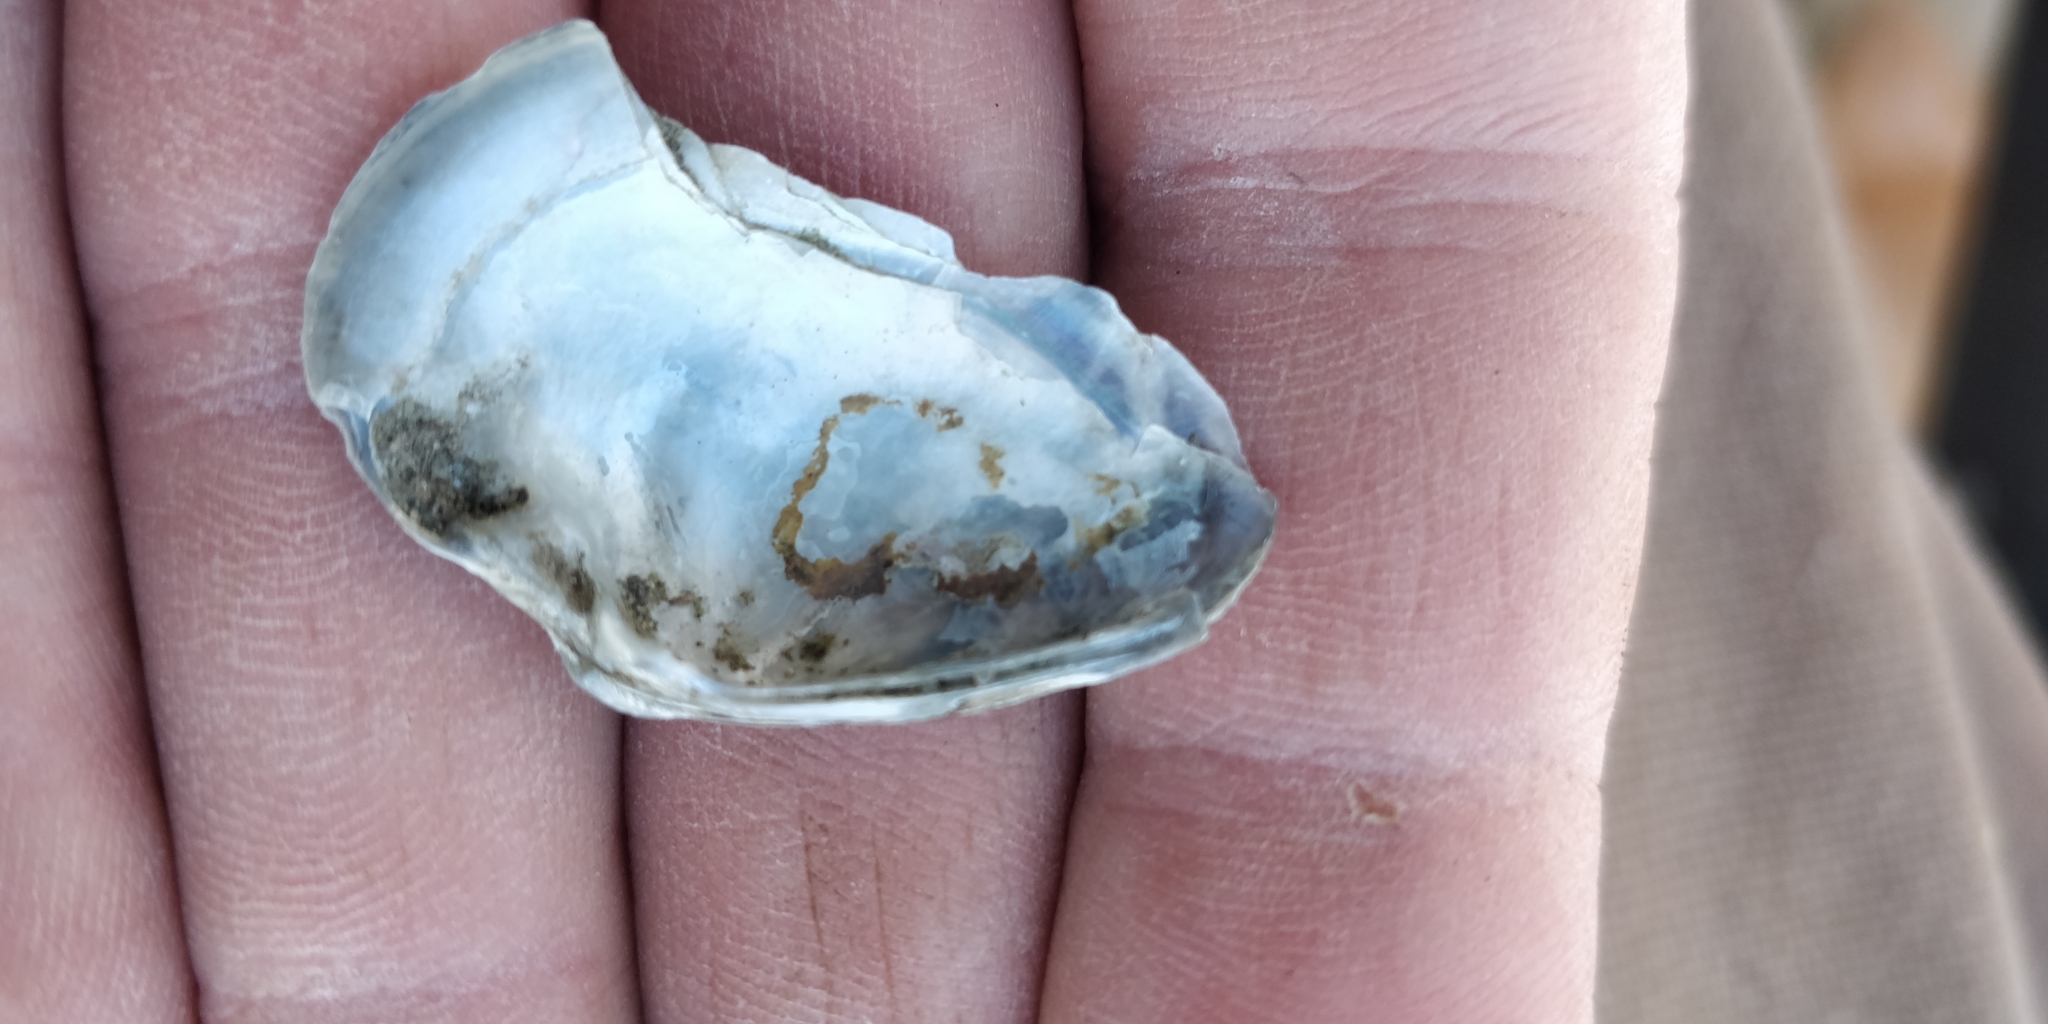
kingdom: Animalia
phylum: Mollusca
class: Bivalvia
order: Unionida
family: Unionidae
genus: Truncilla
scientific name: Truncilla donaciformis
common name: Fawnsfoot
